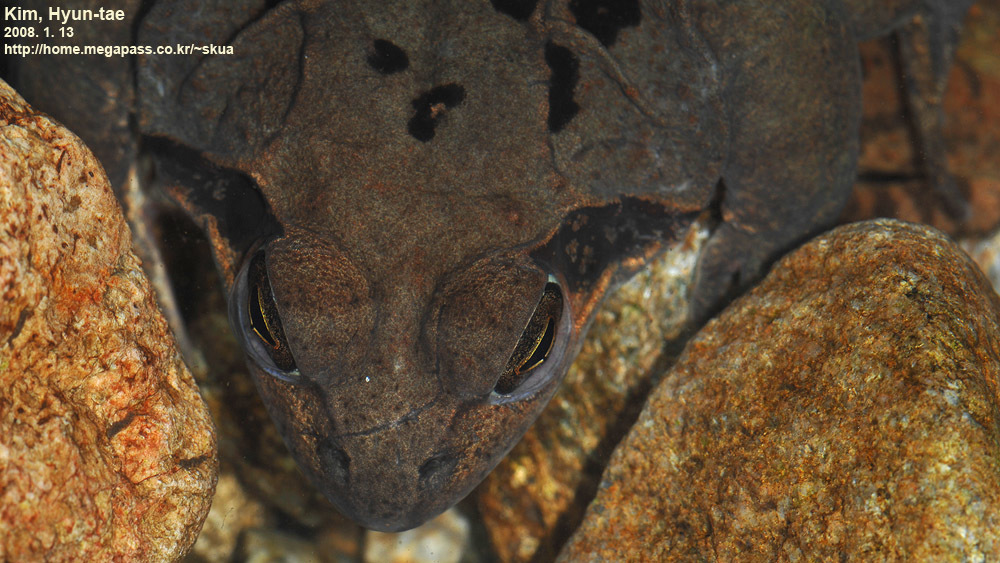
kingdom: Animalia
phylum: Chordata
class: Amphibia
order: Anura
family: Ranidae
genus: Rana
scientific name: Rana uenoi
